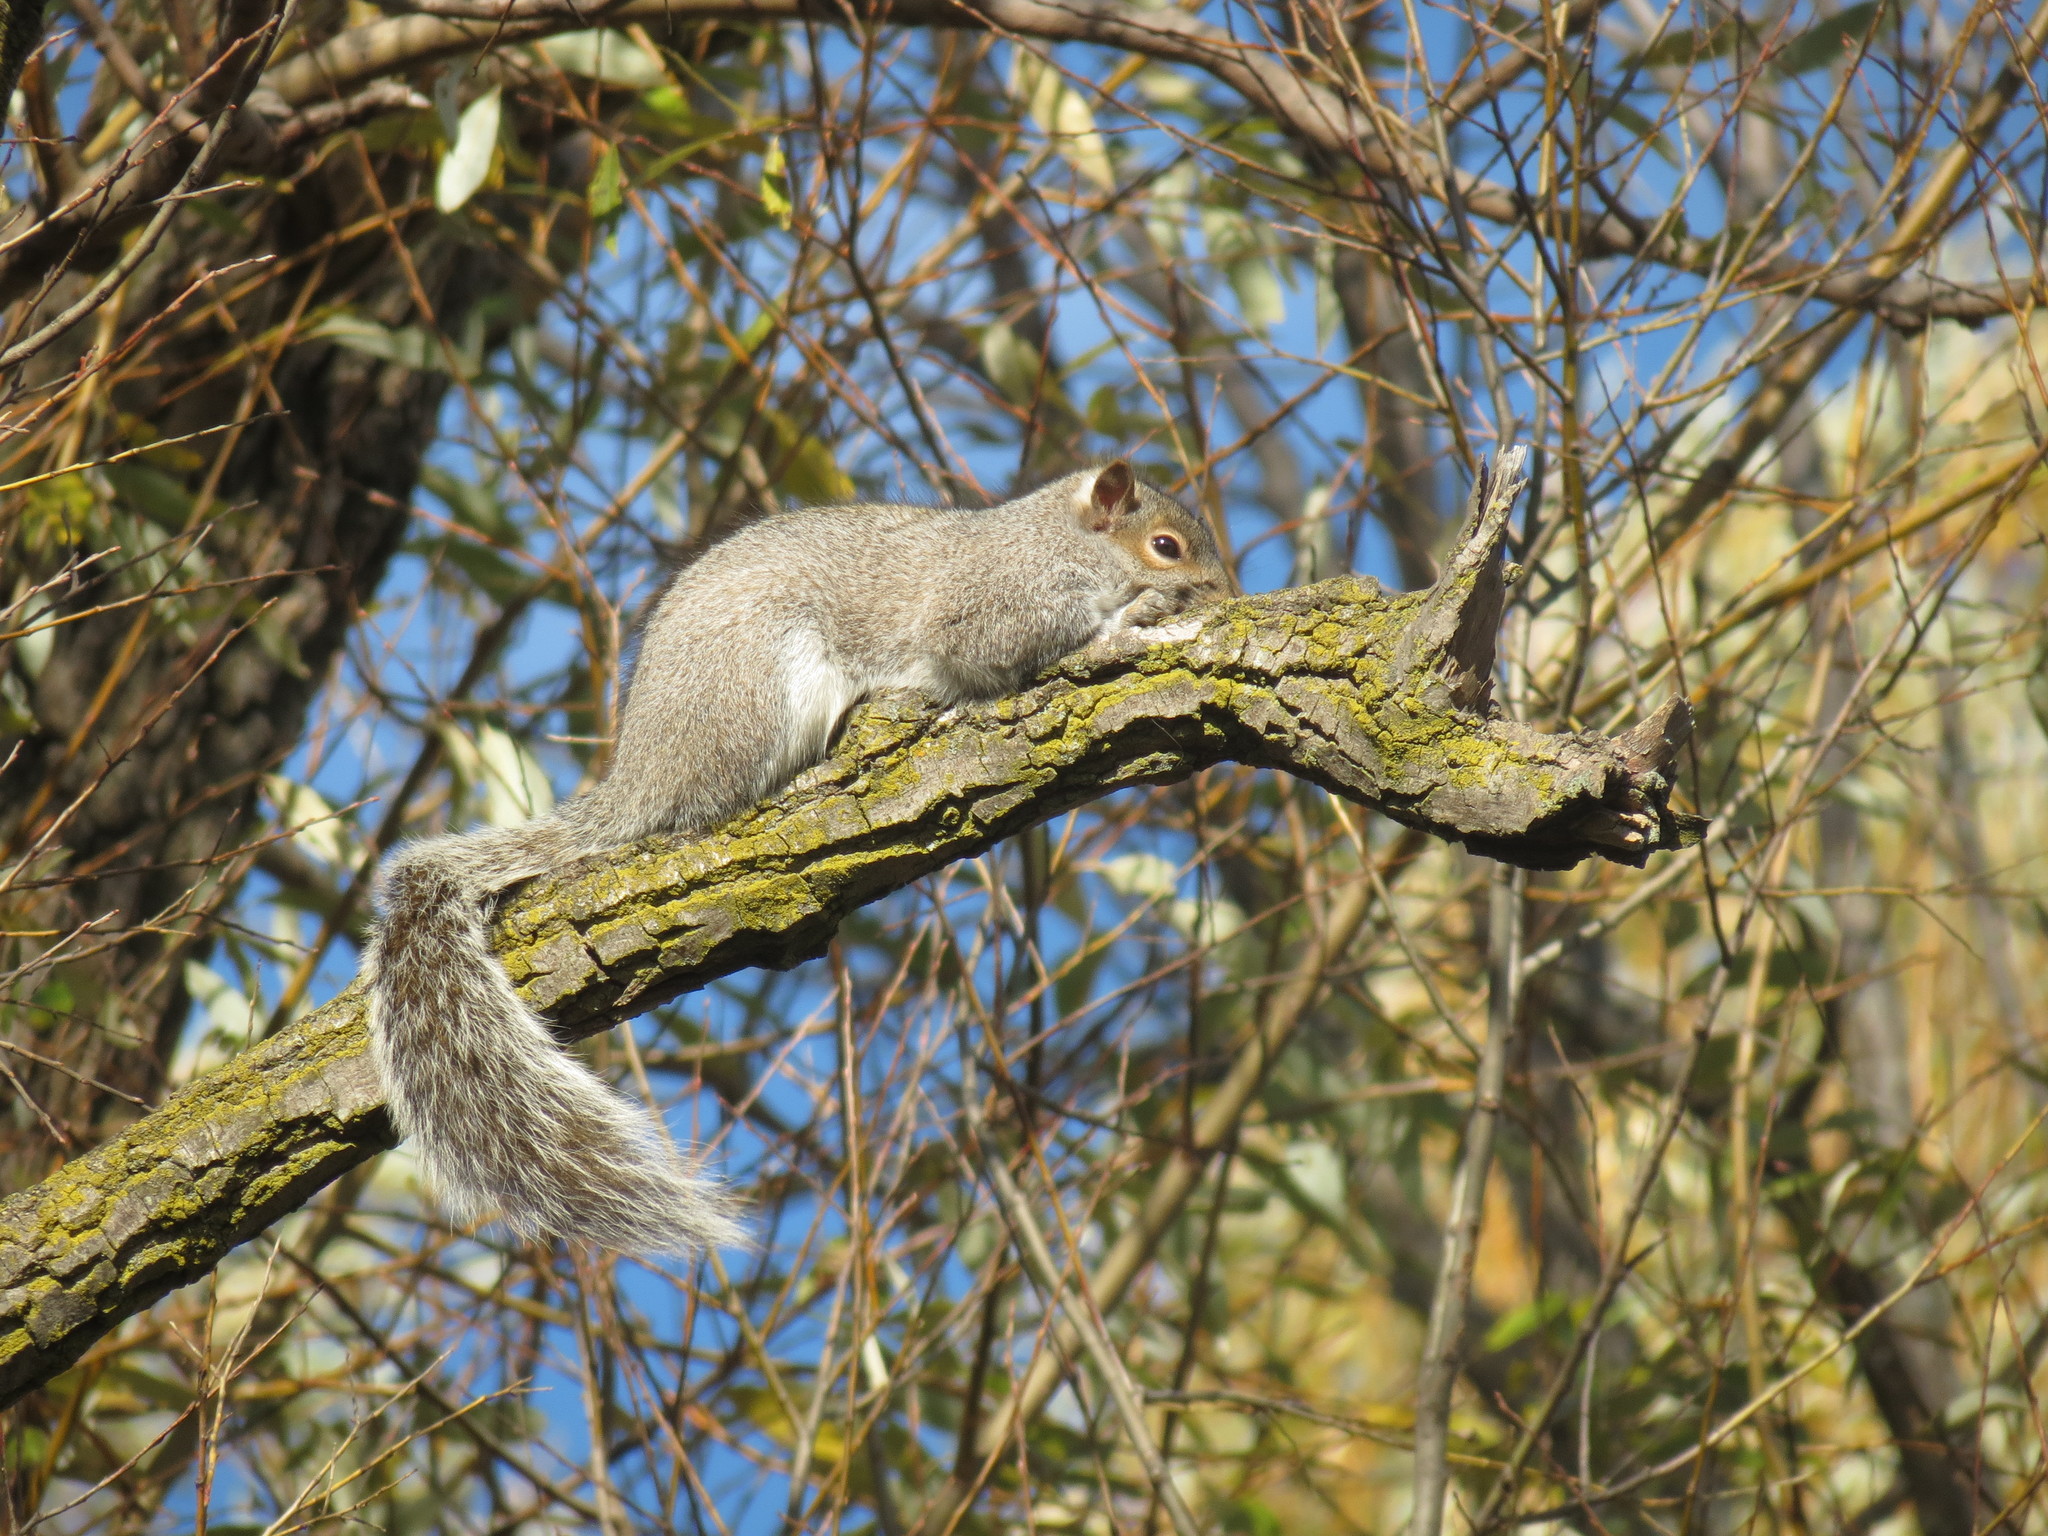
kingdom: Animalia
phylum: Chordata
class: Mammalia
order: Rodentia
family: Sciuridae
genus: Sciurus
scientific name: Sciurus carolinensis
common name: Eastern gray squirrel
